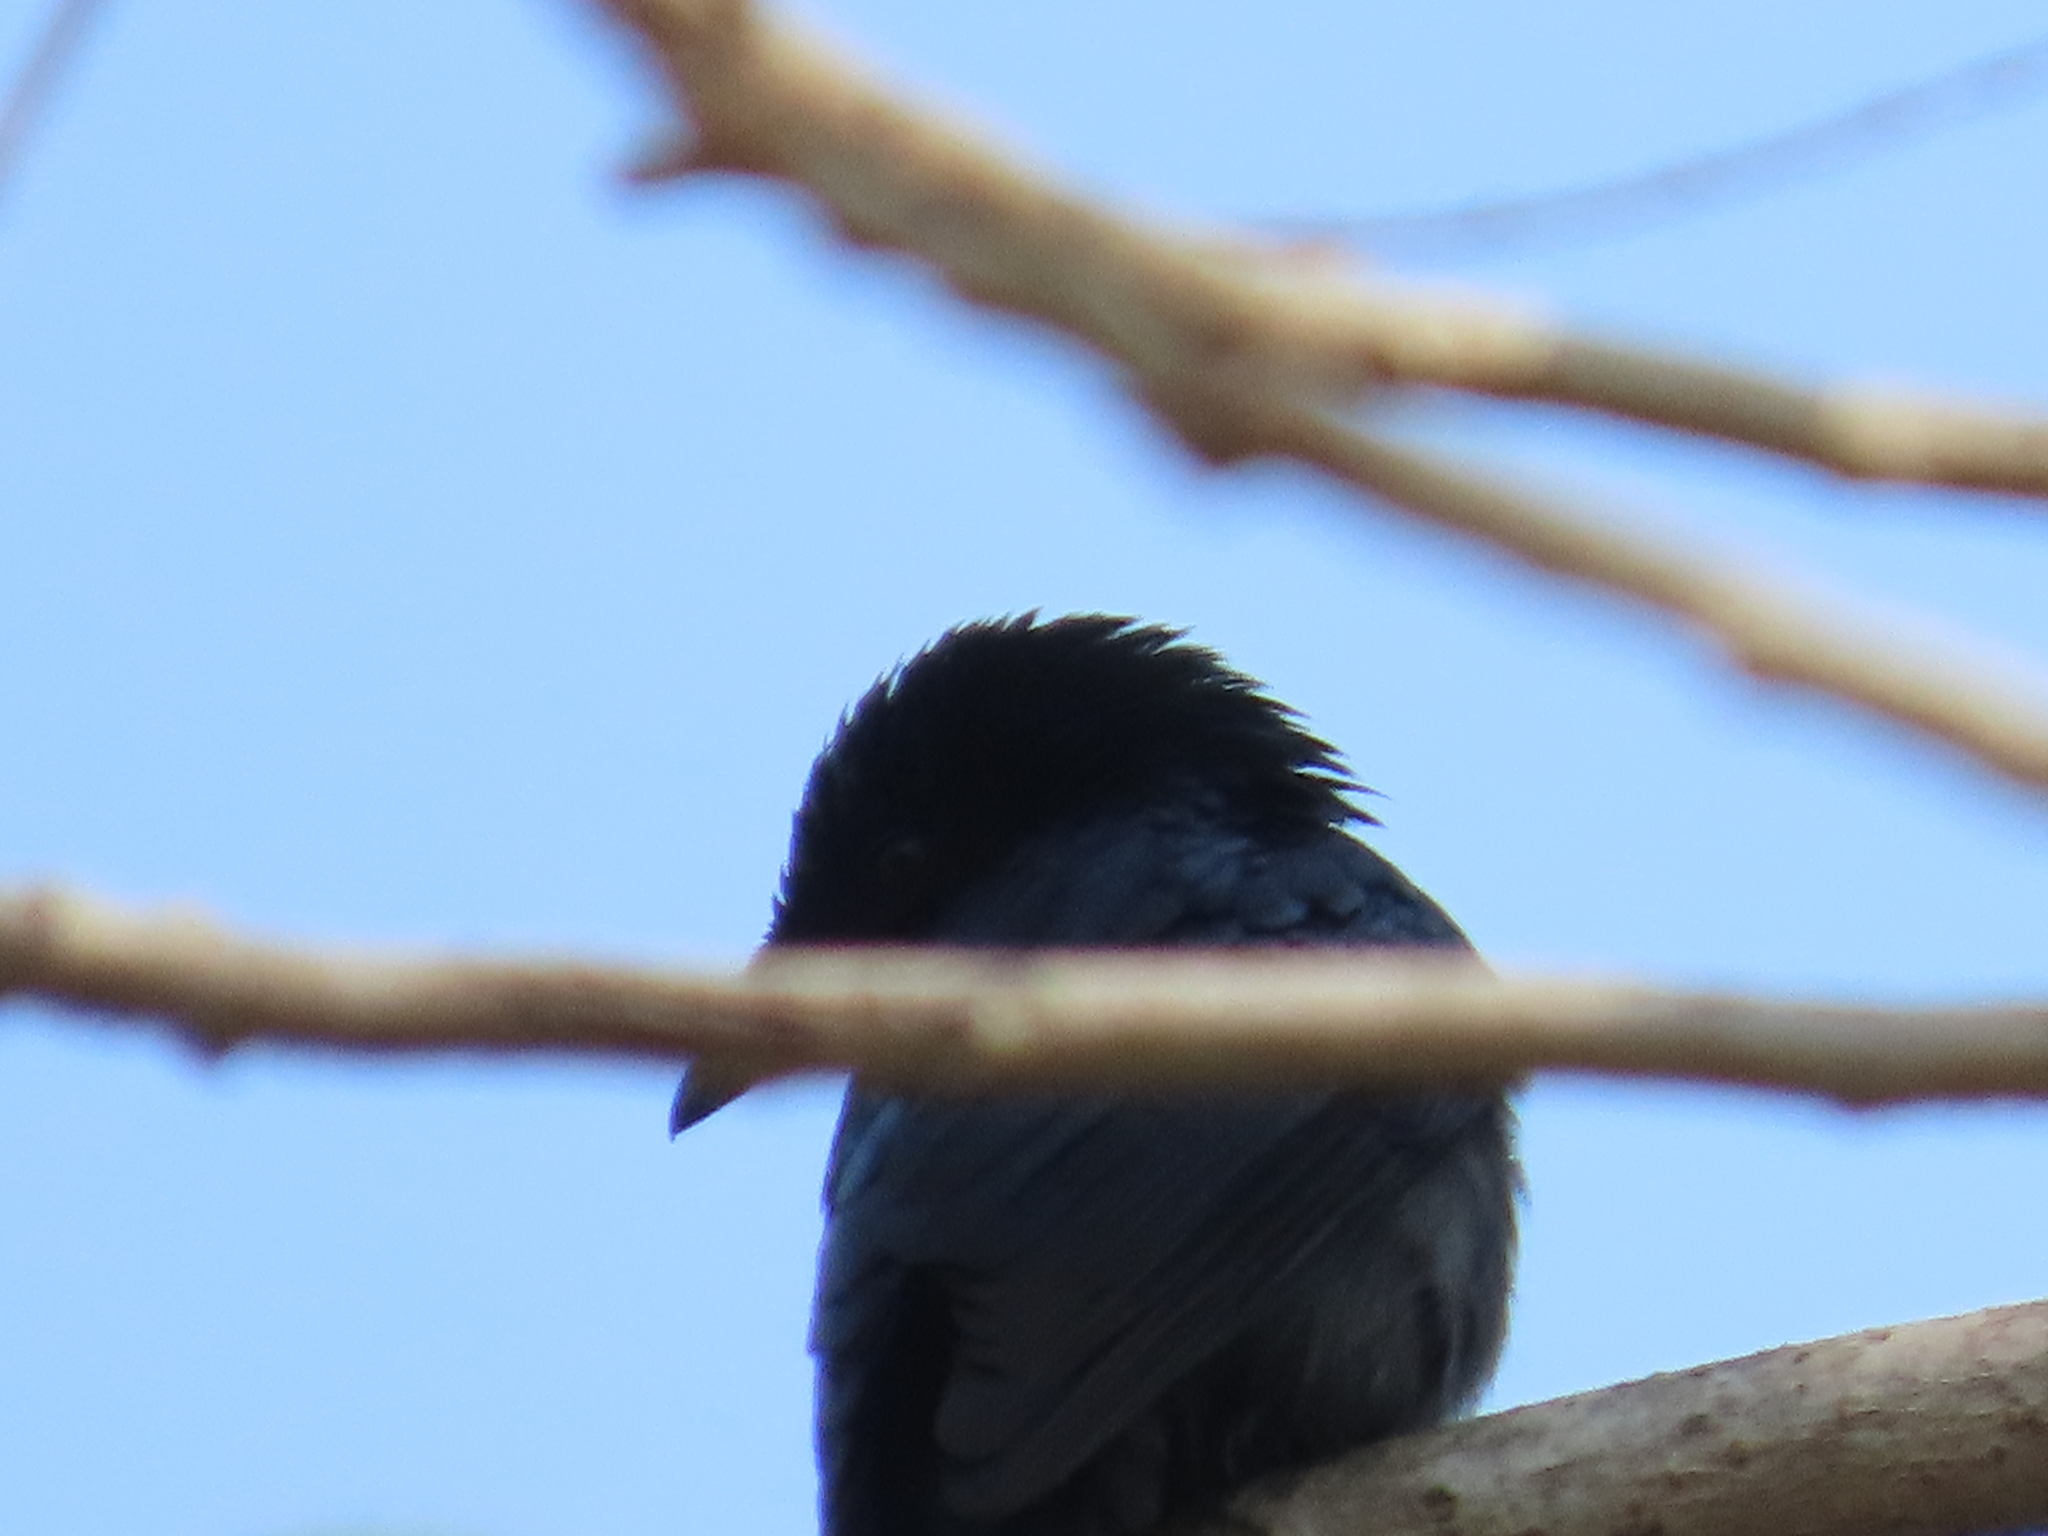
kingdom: Animalia
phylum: Chordata
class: Aves
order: Passeriformes
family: Dicruridae
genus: Dicrurus
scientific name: Dicrurus macrocercus
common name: Black drongo
